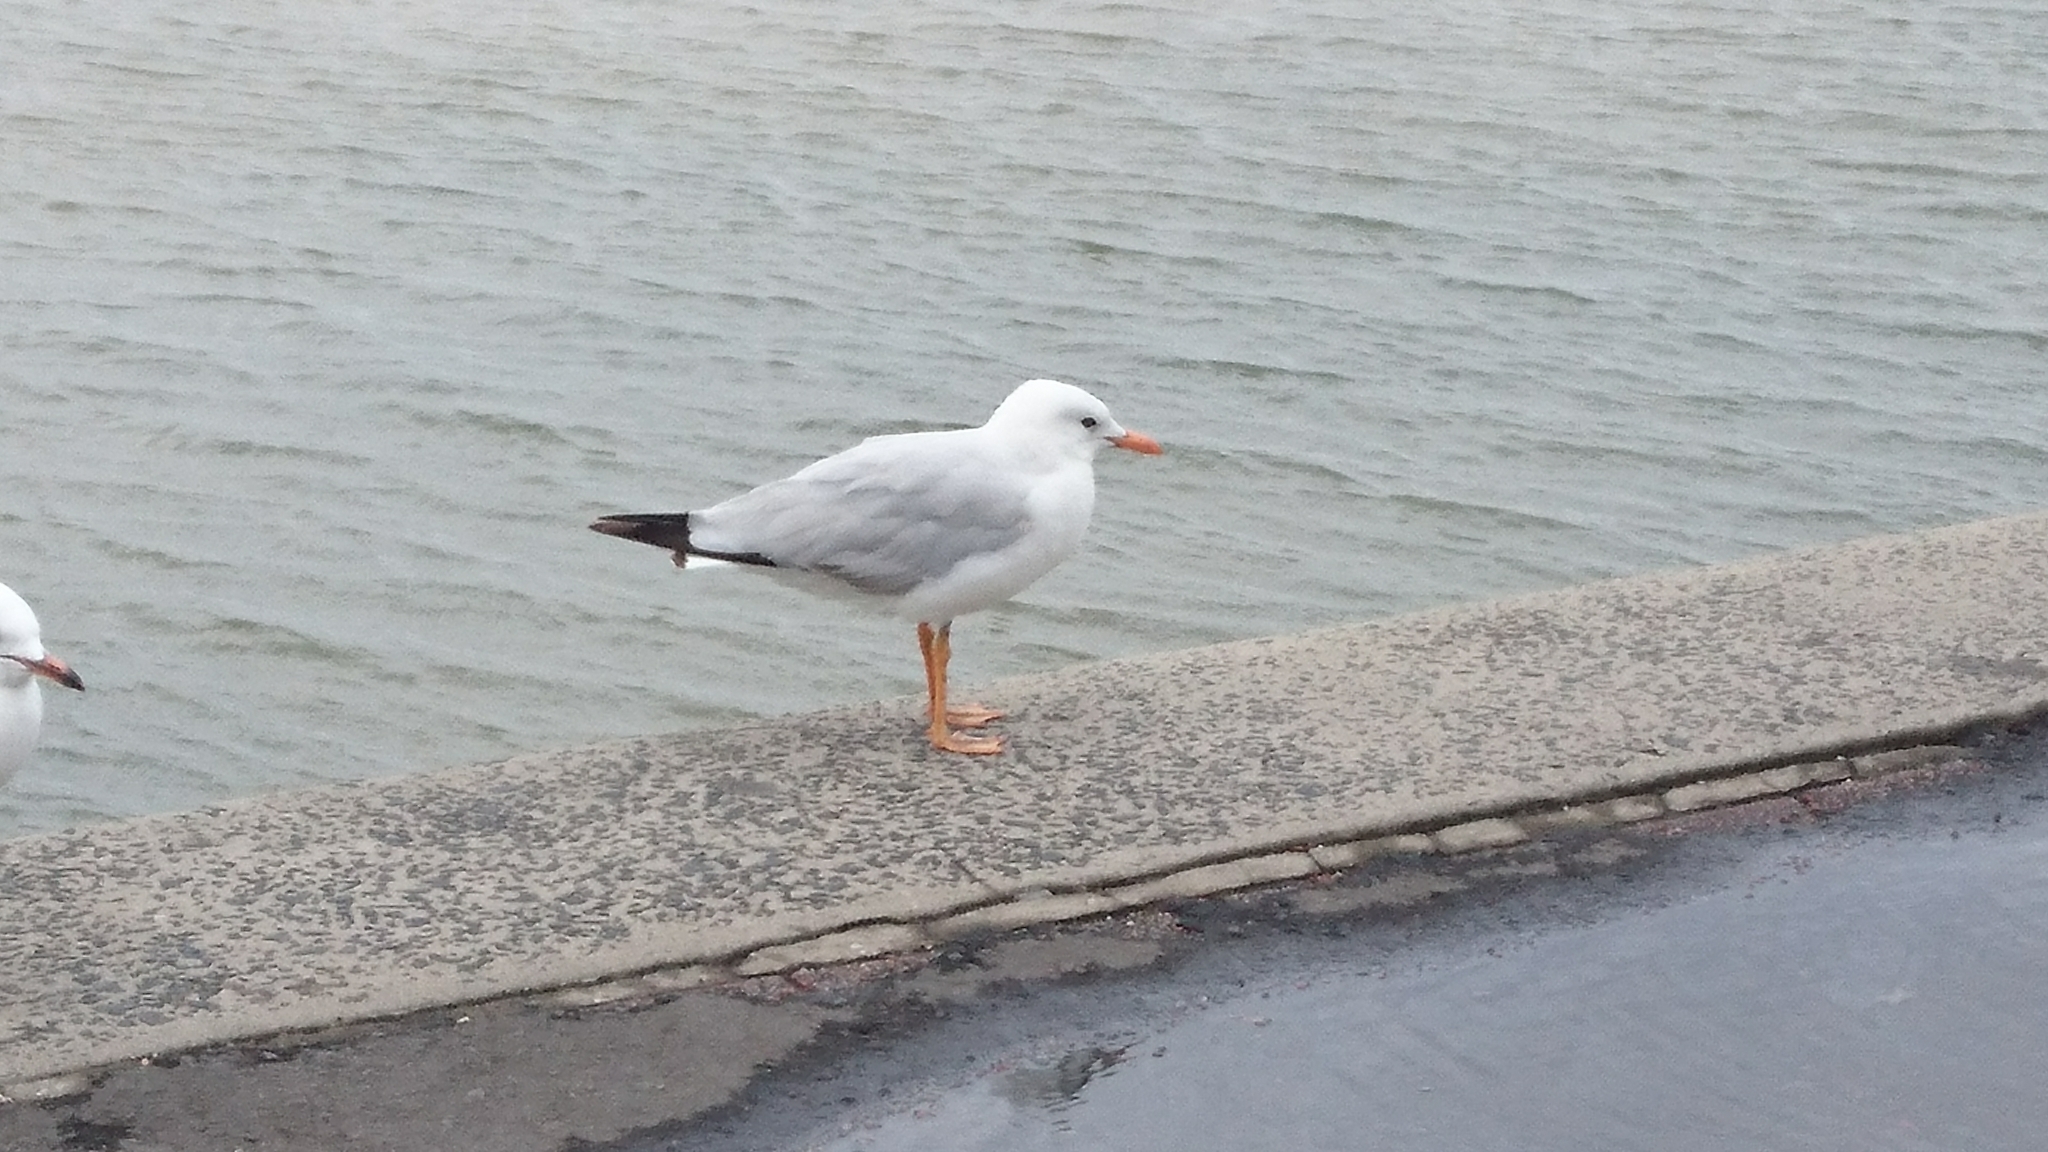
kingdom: Animalia
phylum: Chordata
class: Aves
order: Charadriiformes
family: Laridae
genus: Chroicocephalus
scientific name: Chroicocephalus novaehollandiae
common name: Silver gull
